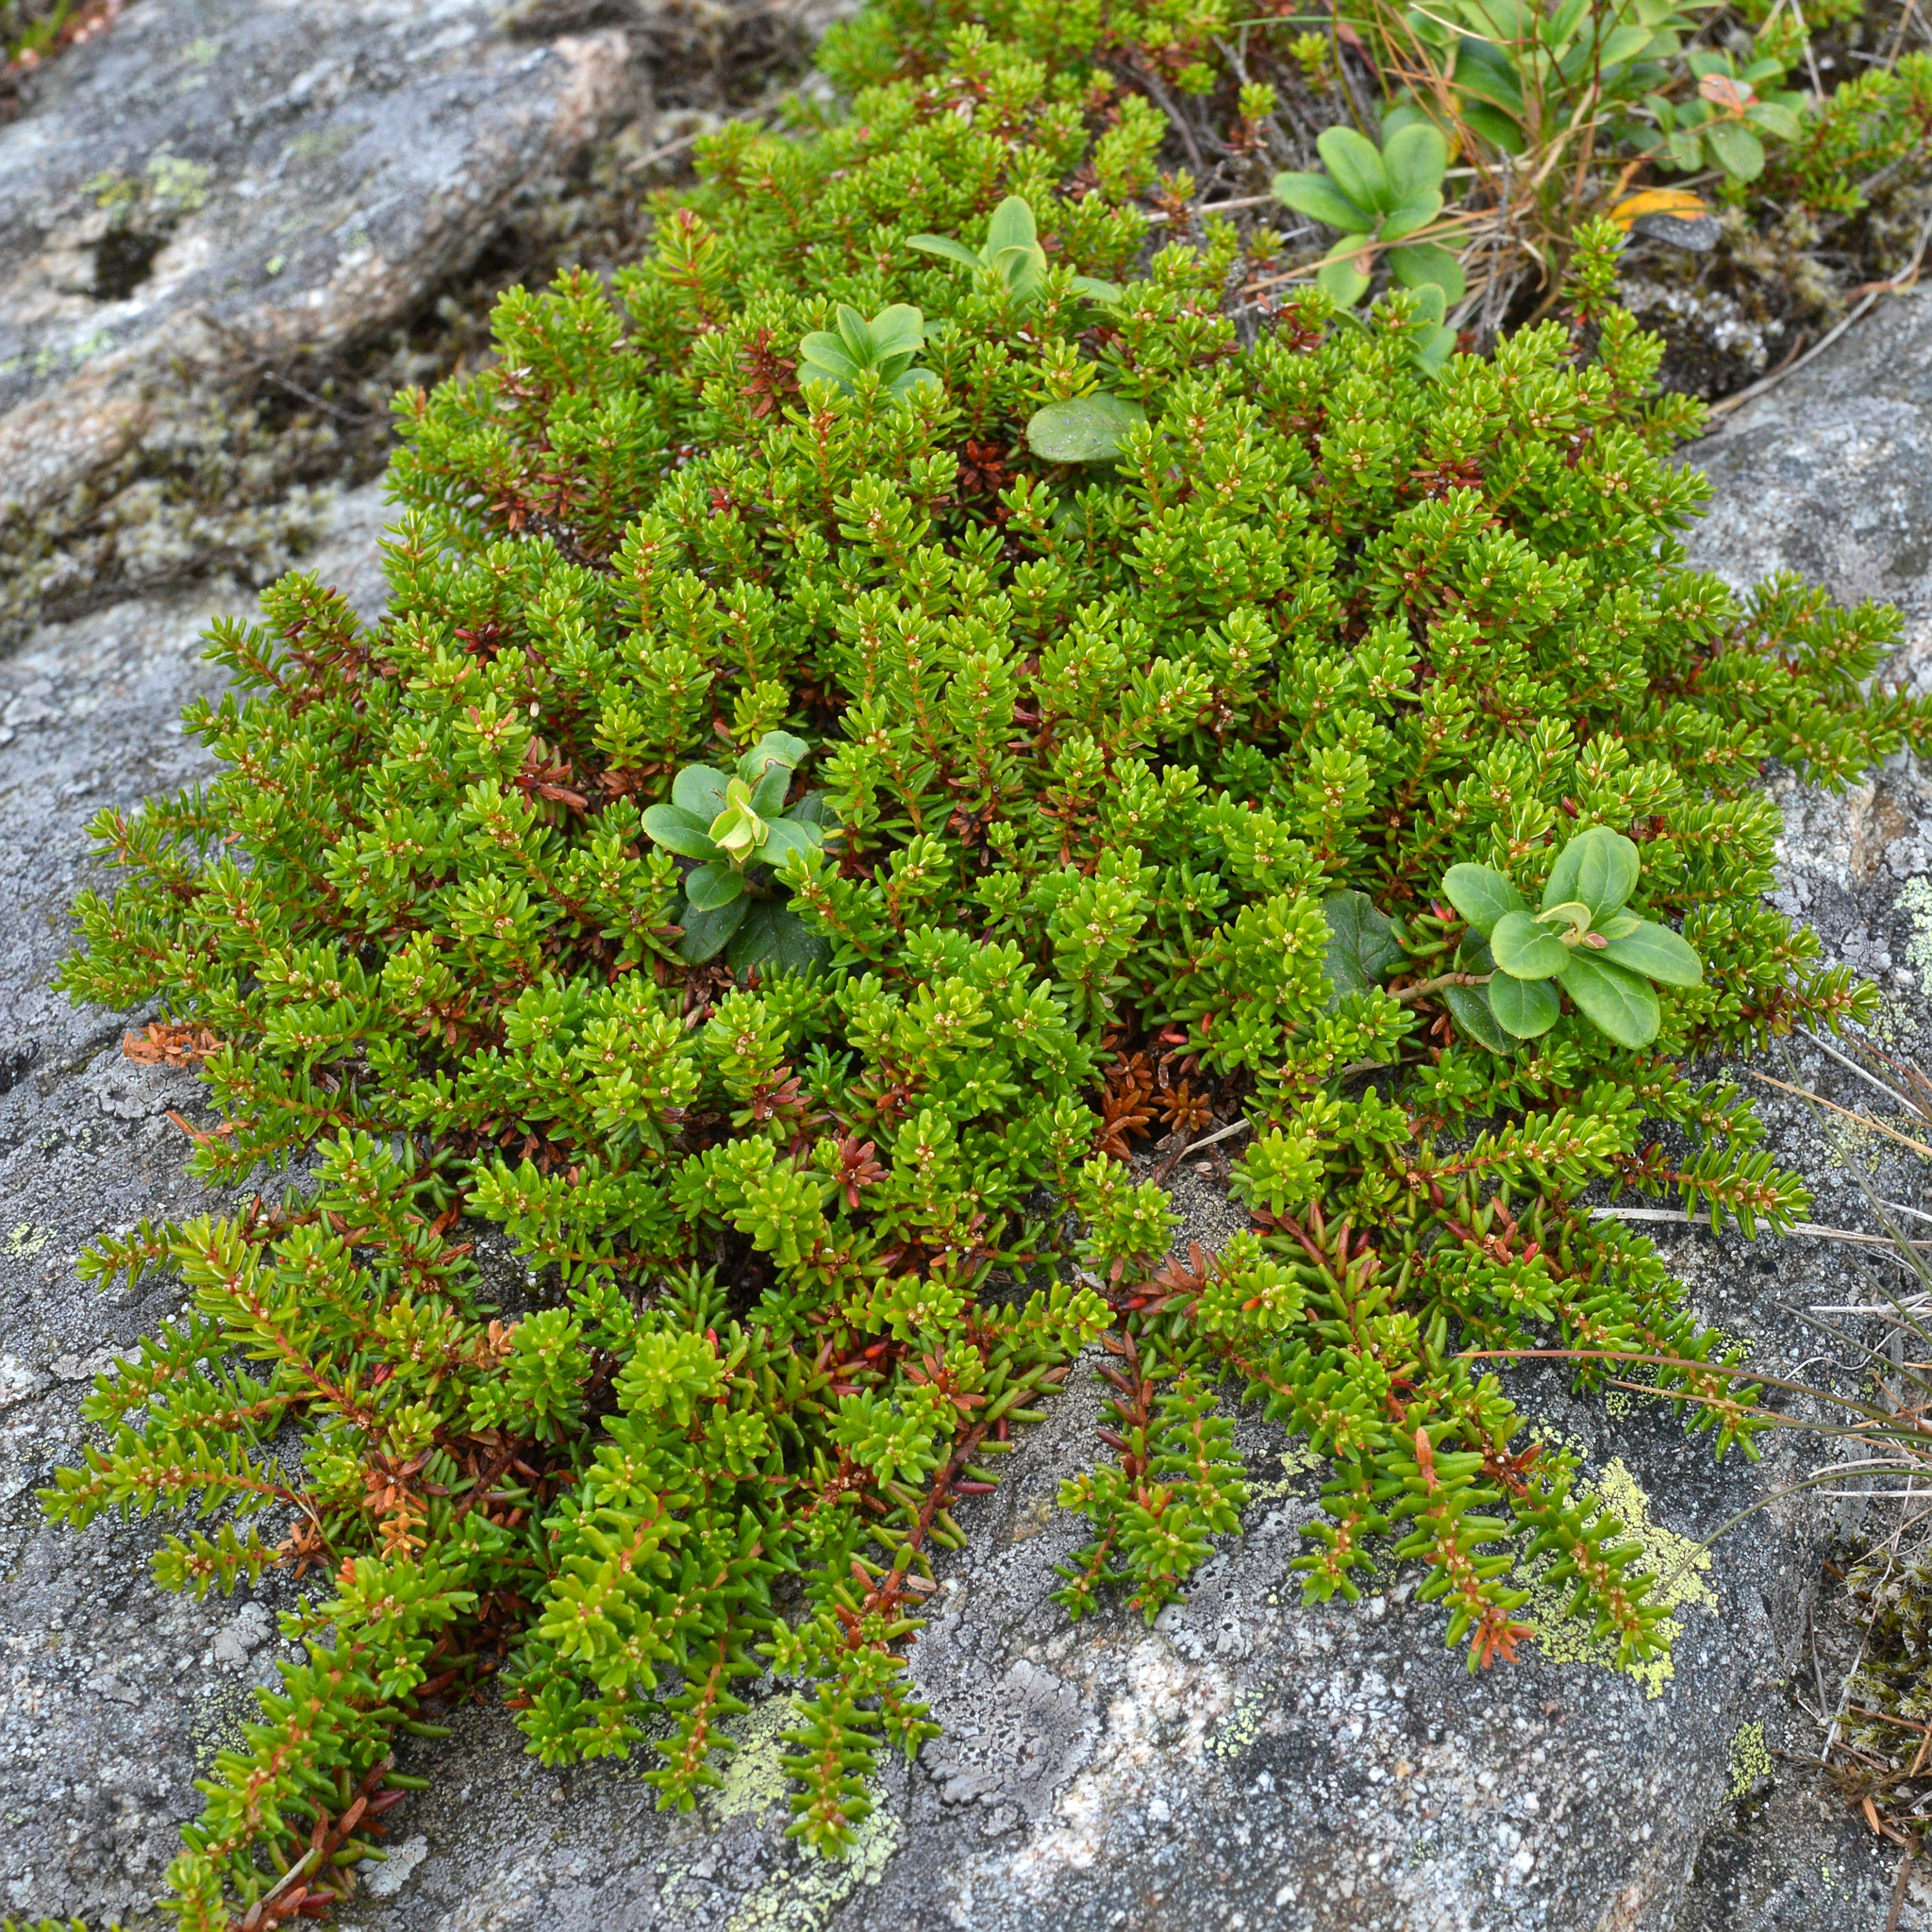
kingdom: Plantae
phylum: Tracheophyta
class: Magnoliopsida
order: Ericales
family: Ericaceae
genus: Empetrum
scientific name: Empetrum nigrum
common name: Black crowberry
